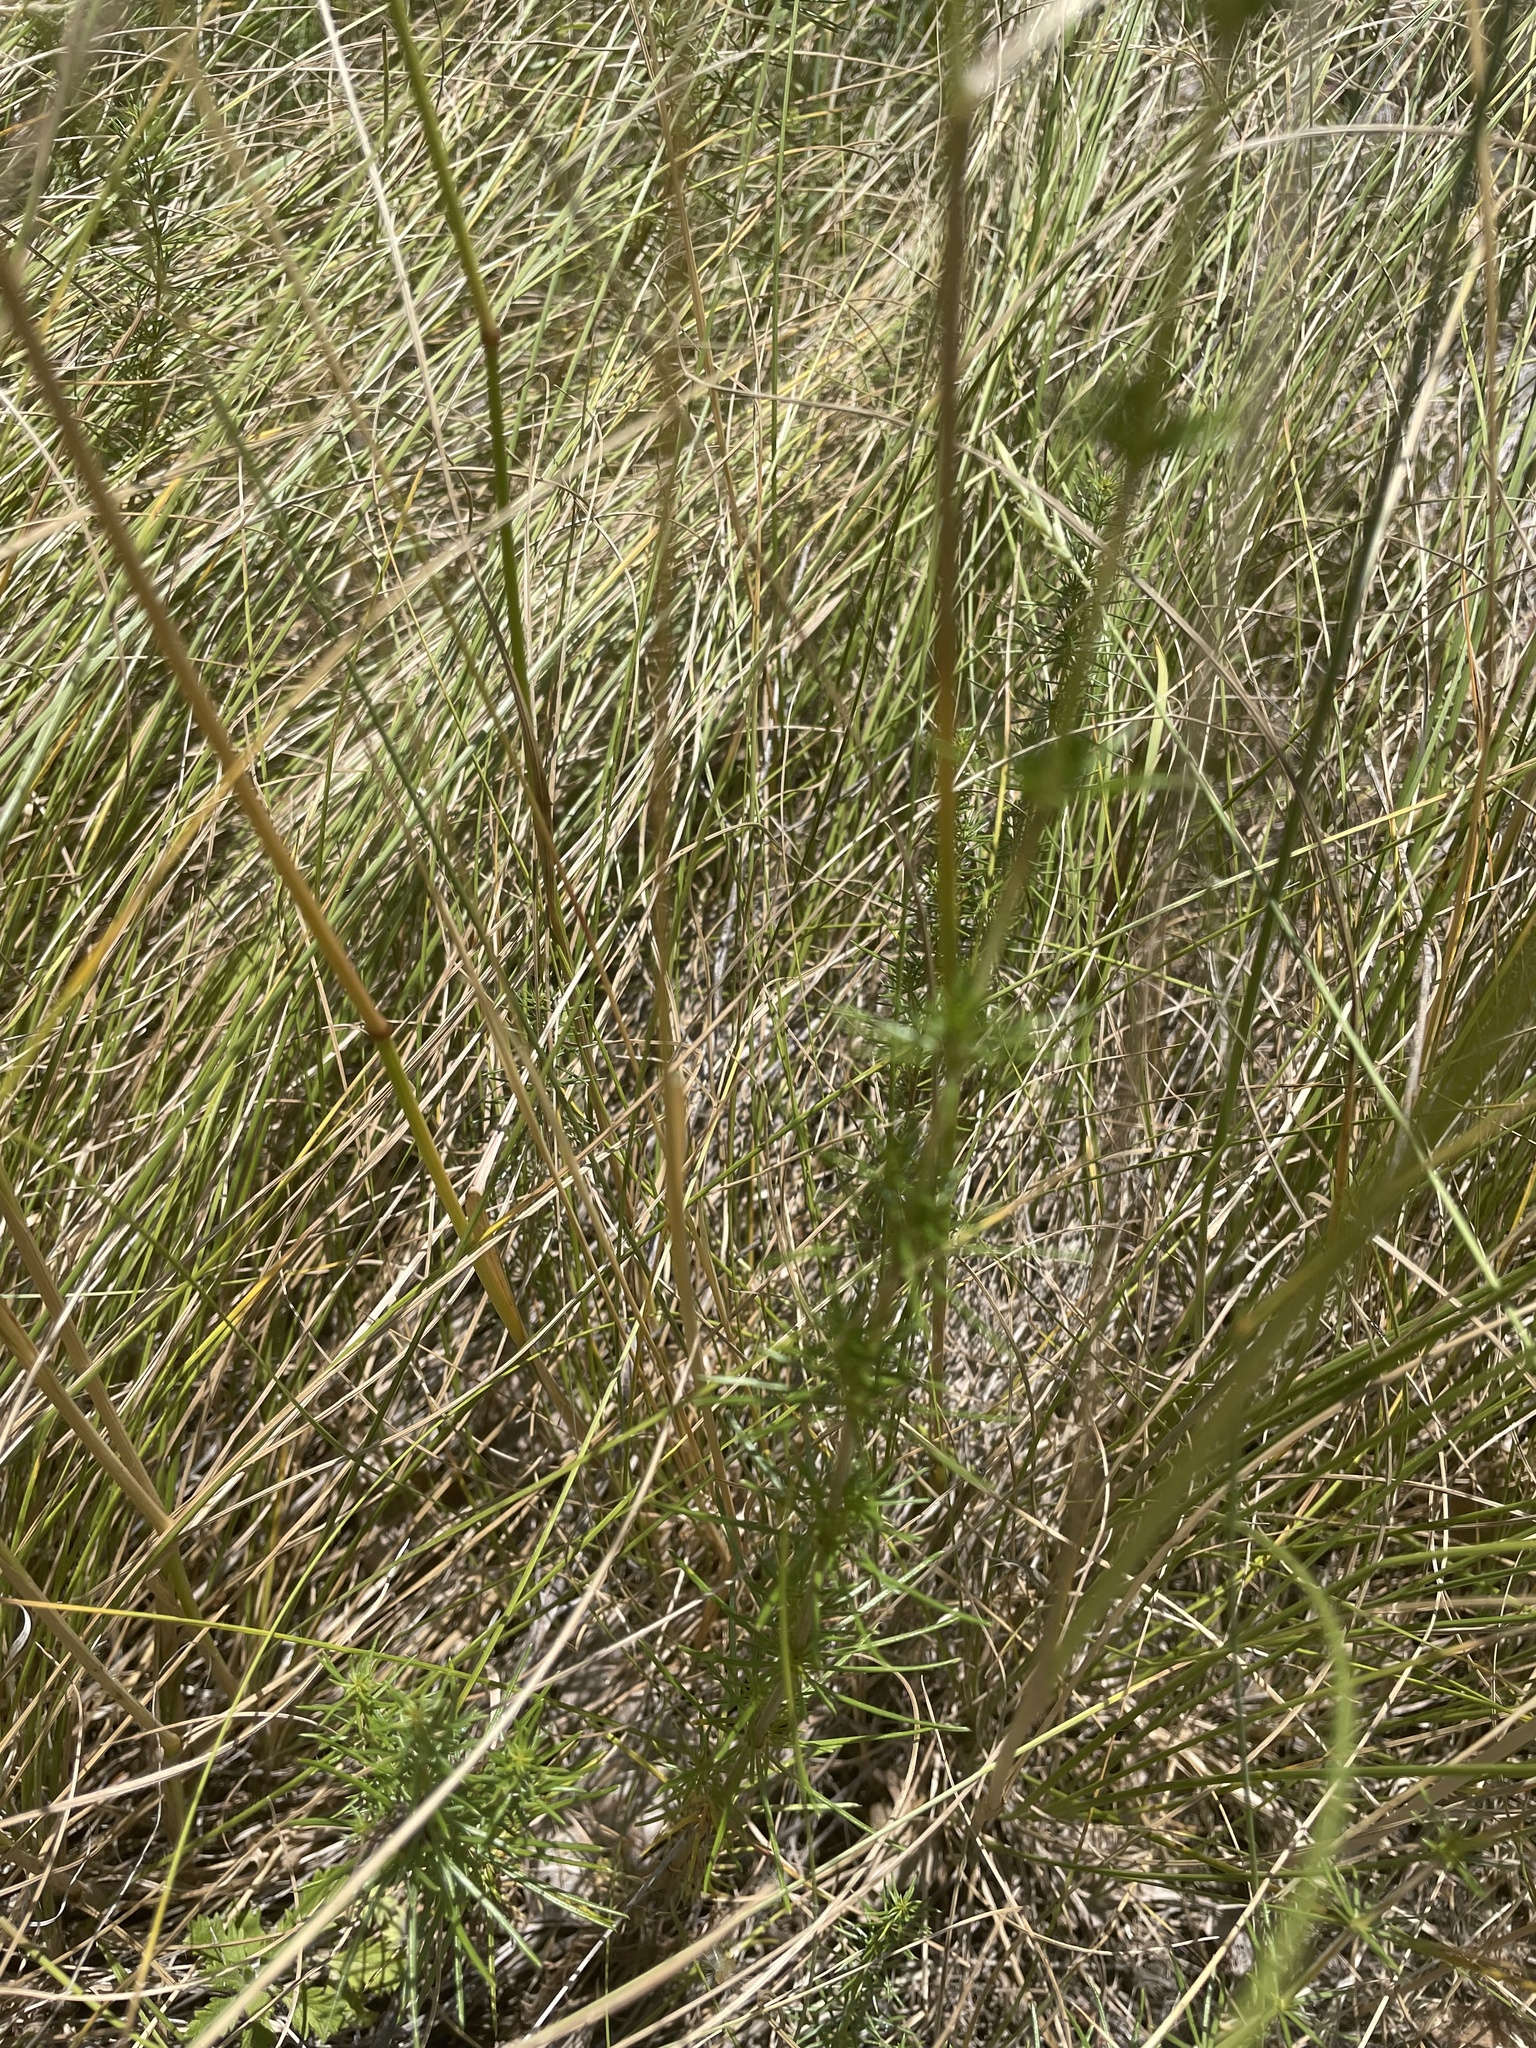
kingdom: Plantae
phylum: Tracheophyta
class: Magnoliopsida
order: Gentianales
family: Rubiaceae
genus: Galium
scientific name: Galium verum
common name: Lady's bedstraw
